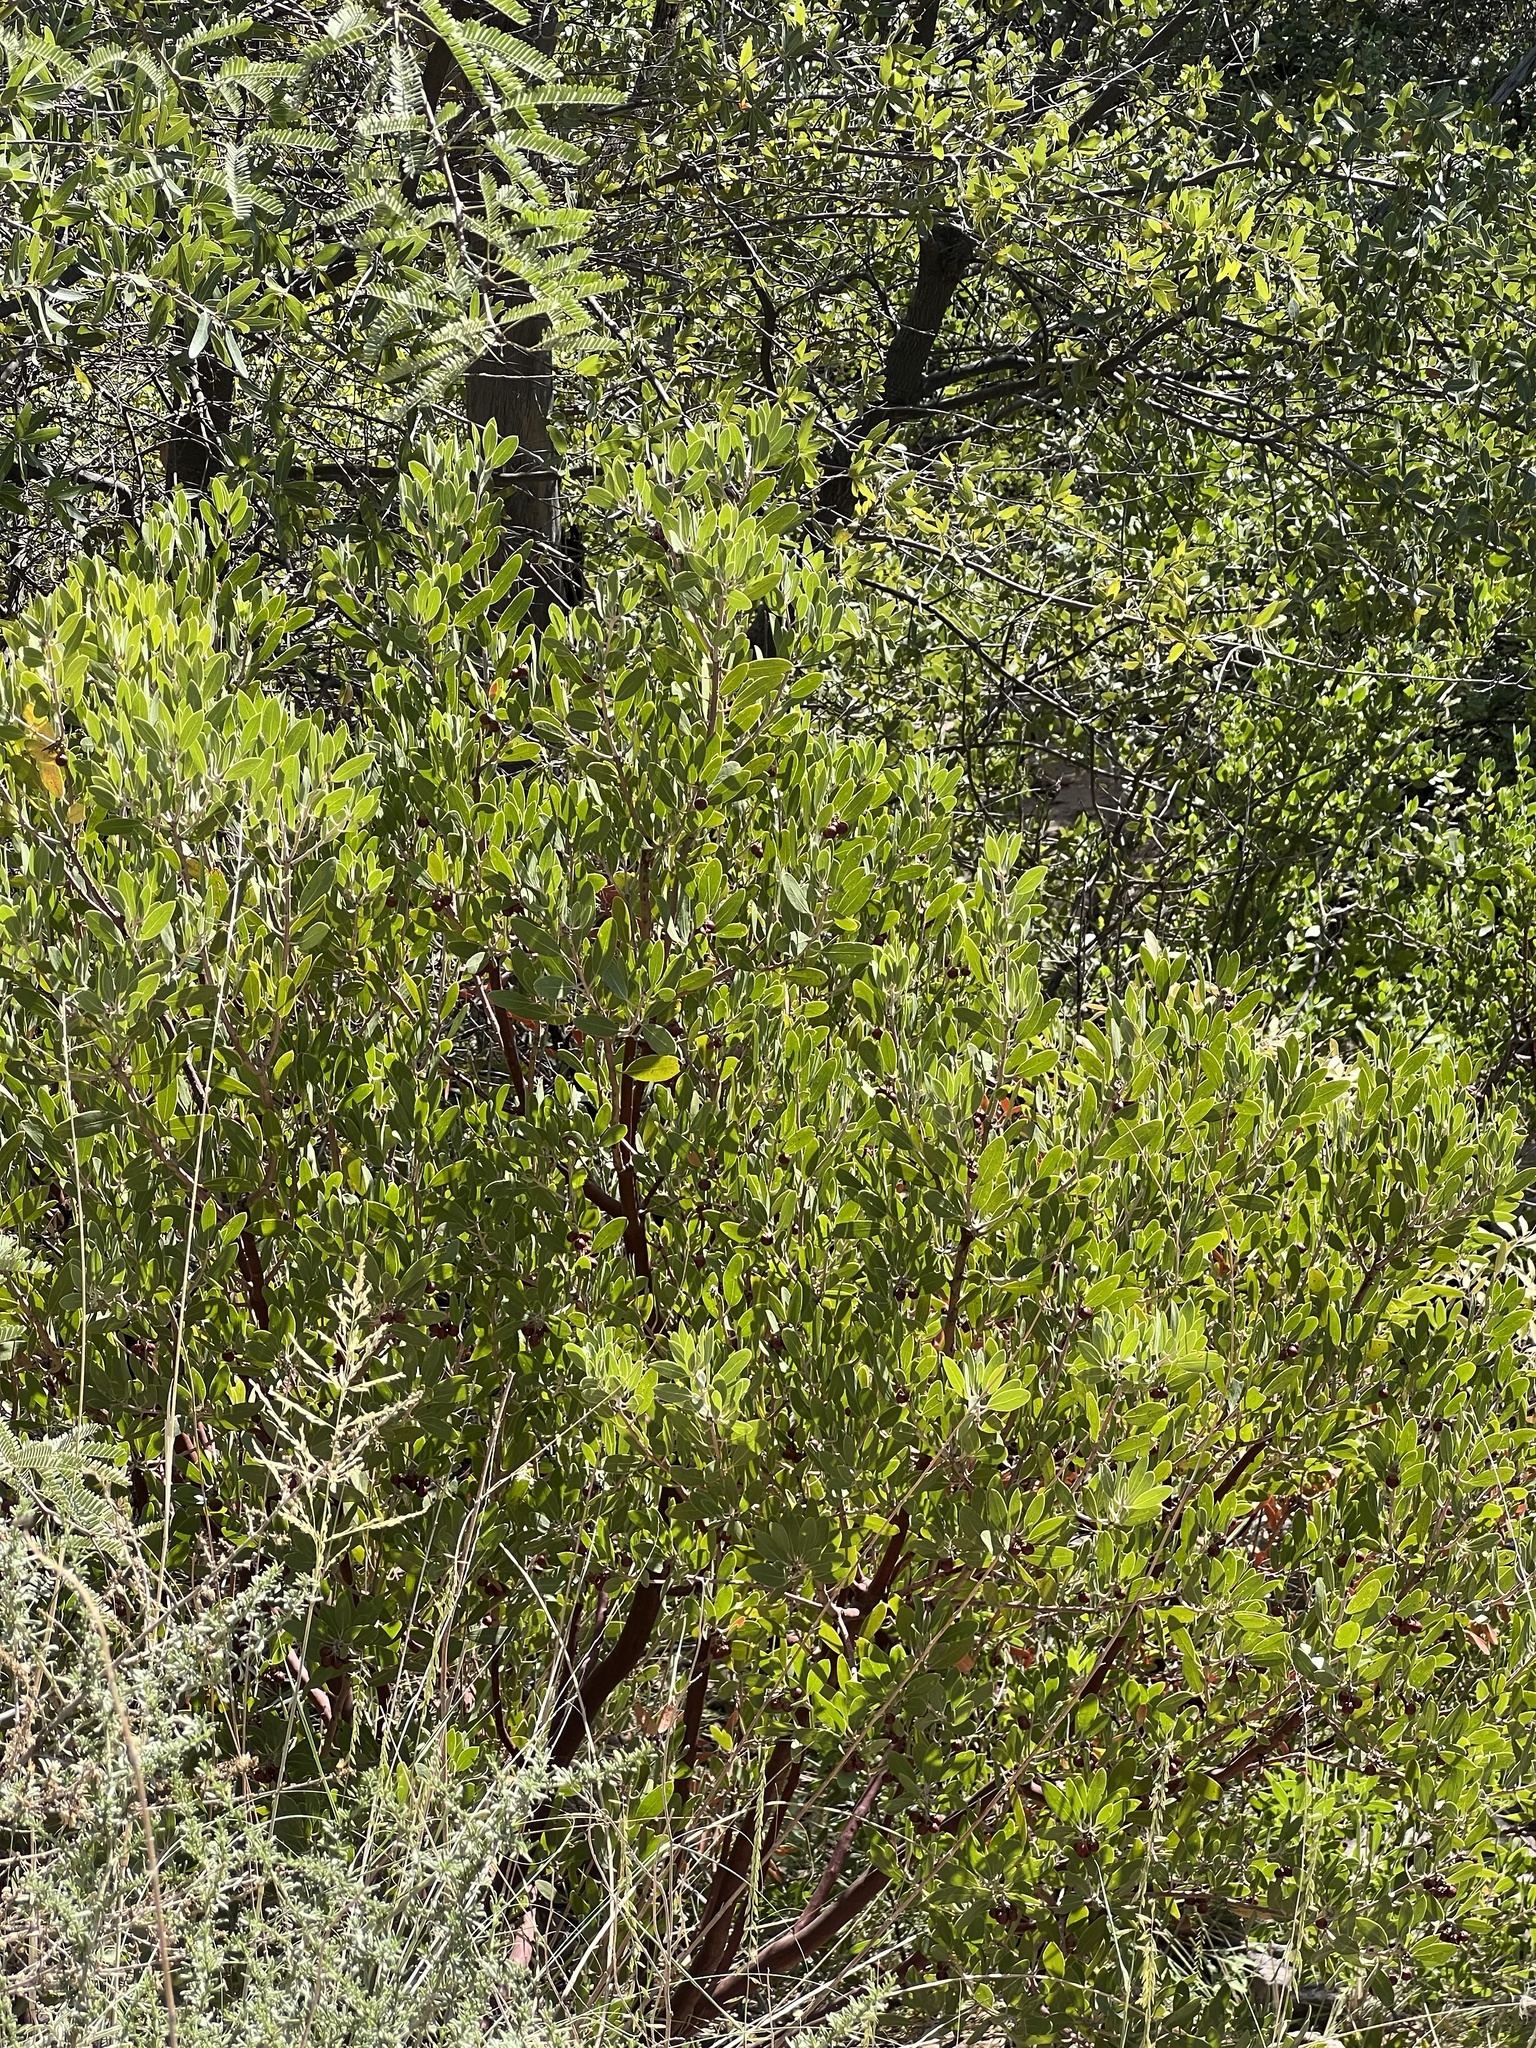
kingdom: Plantae
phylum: Tracheophyta
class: Magnoliopsida
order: Ericales
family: Ericaceae
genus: Arctostaphylos
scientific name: Arctostaphylos pungens
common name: Mexican manzanita
